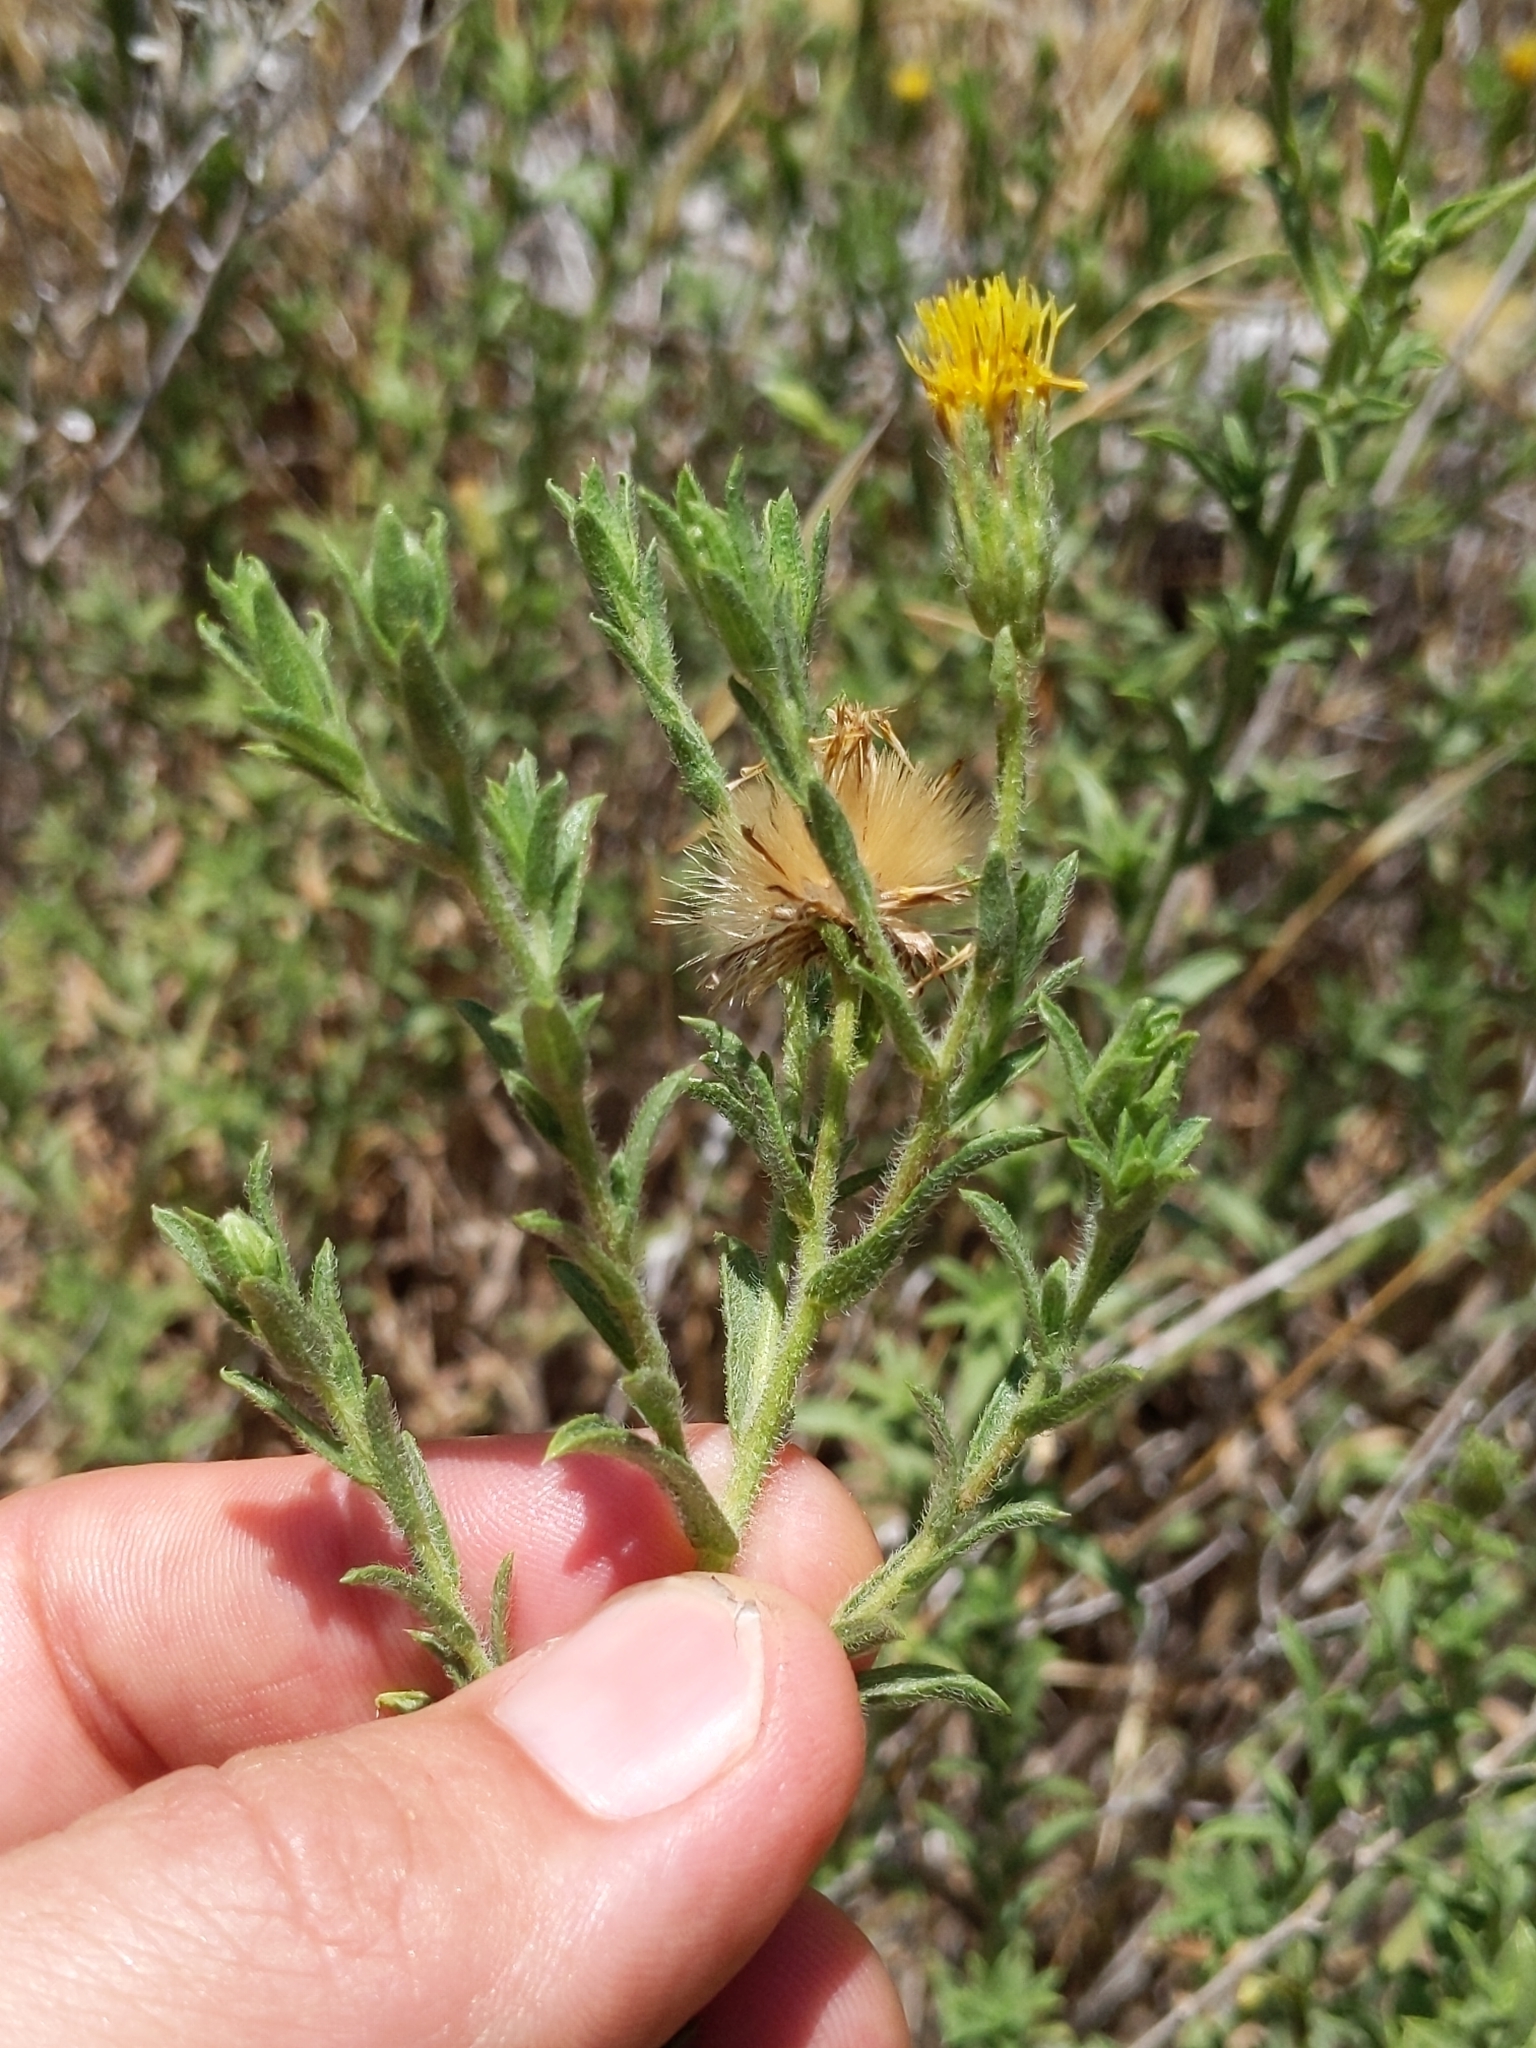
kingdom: Plantae
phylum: Tracheophyta
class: Magnoliopsida
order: Asterales
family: Asteraceae
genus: Heterotheca
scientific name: Heterotheca oregona
